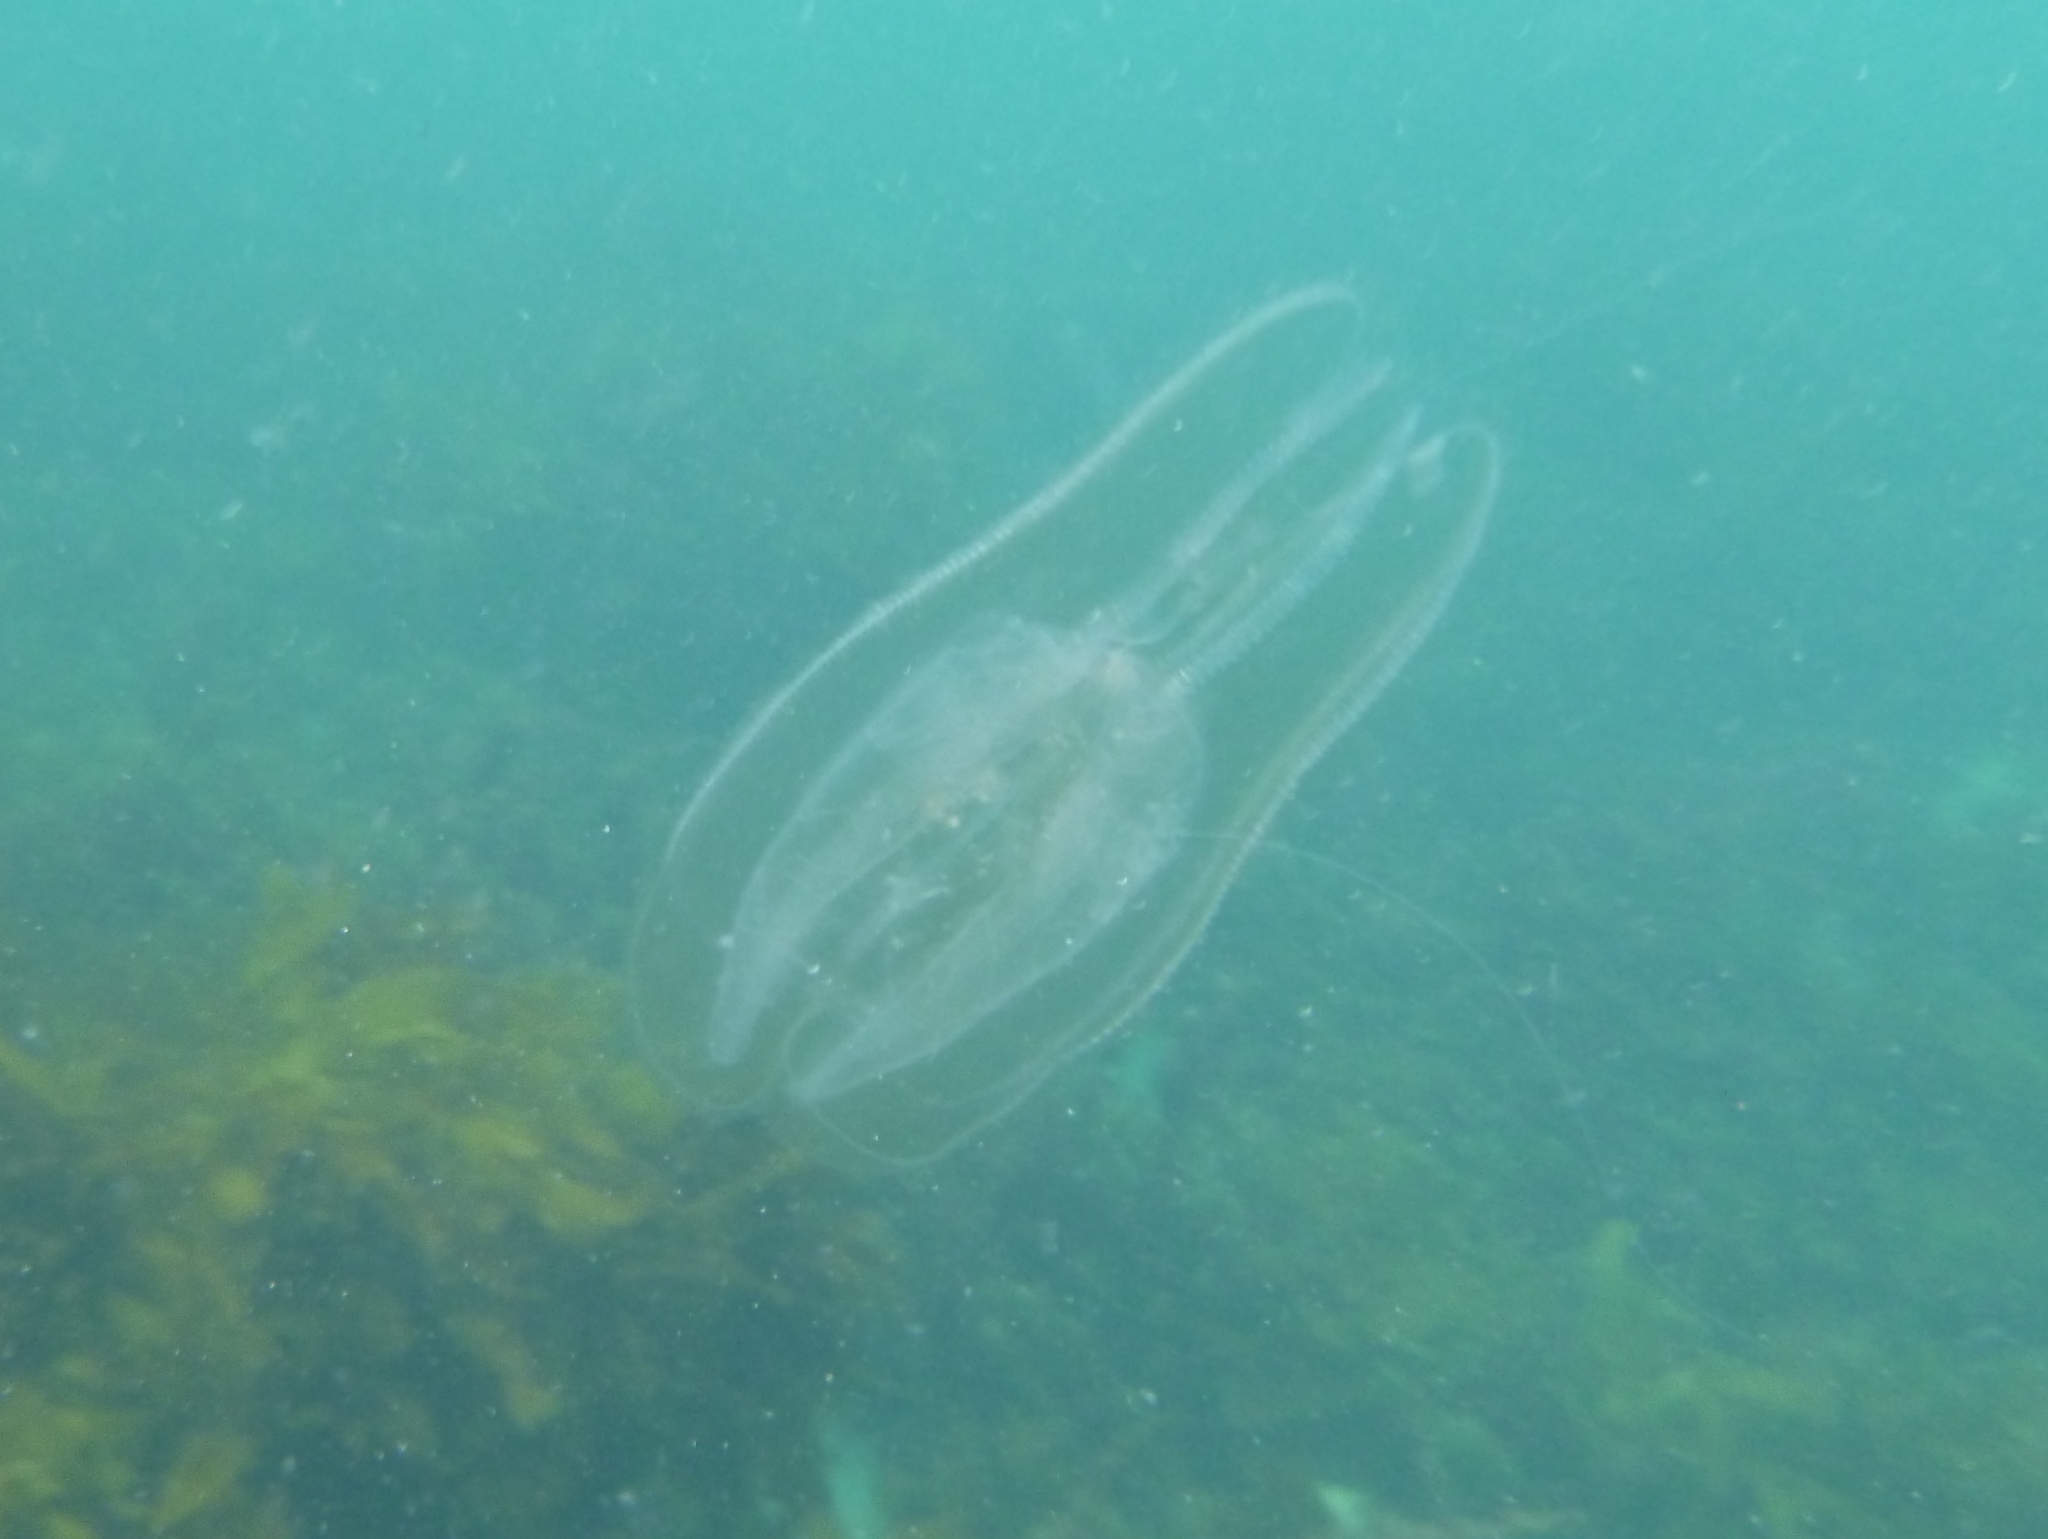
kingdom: Animalia
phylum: Ctenophora
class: Tentaculata
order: Lobata
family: Leucotheidae
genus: Leucothea
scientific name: Leucothea multicornis
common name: Vitreous lobate comb-jelly
